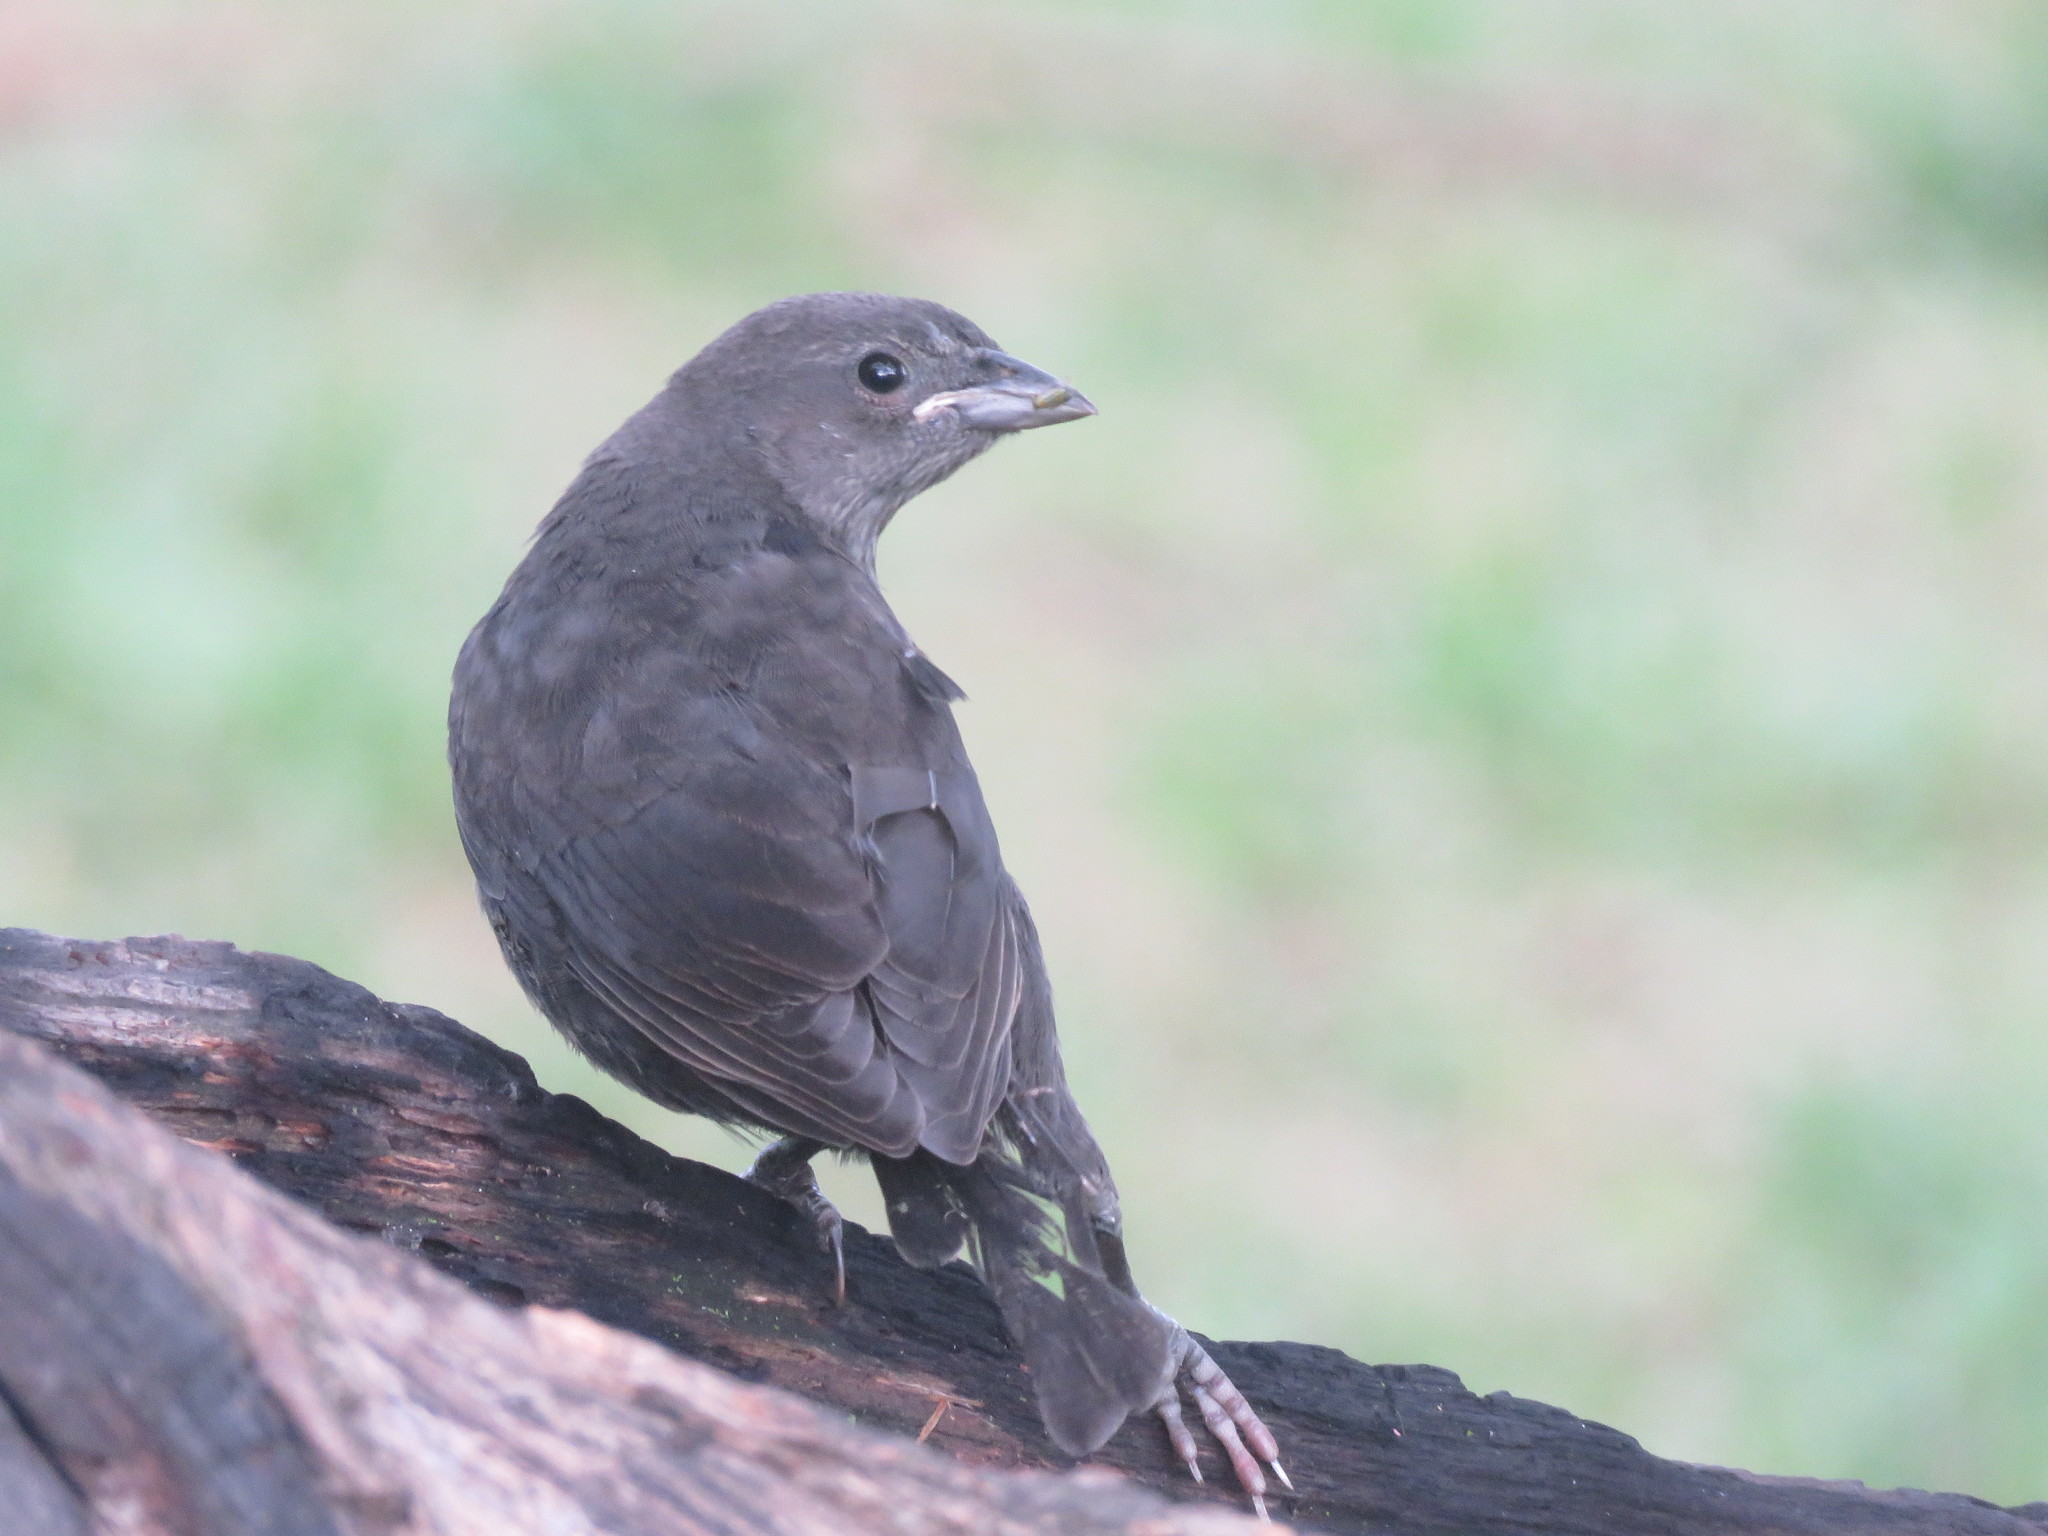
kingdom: Animalia
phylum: Chordata
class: Aves
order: Passeriformes
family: Icteridae
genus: Molothrus
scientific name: Molothrus bonariensis
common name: Shiny cowbird
